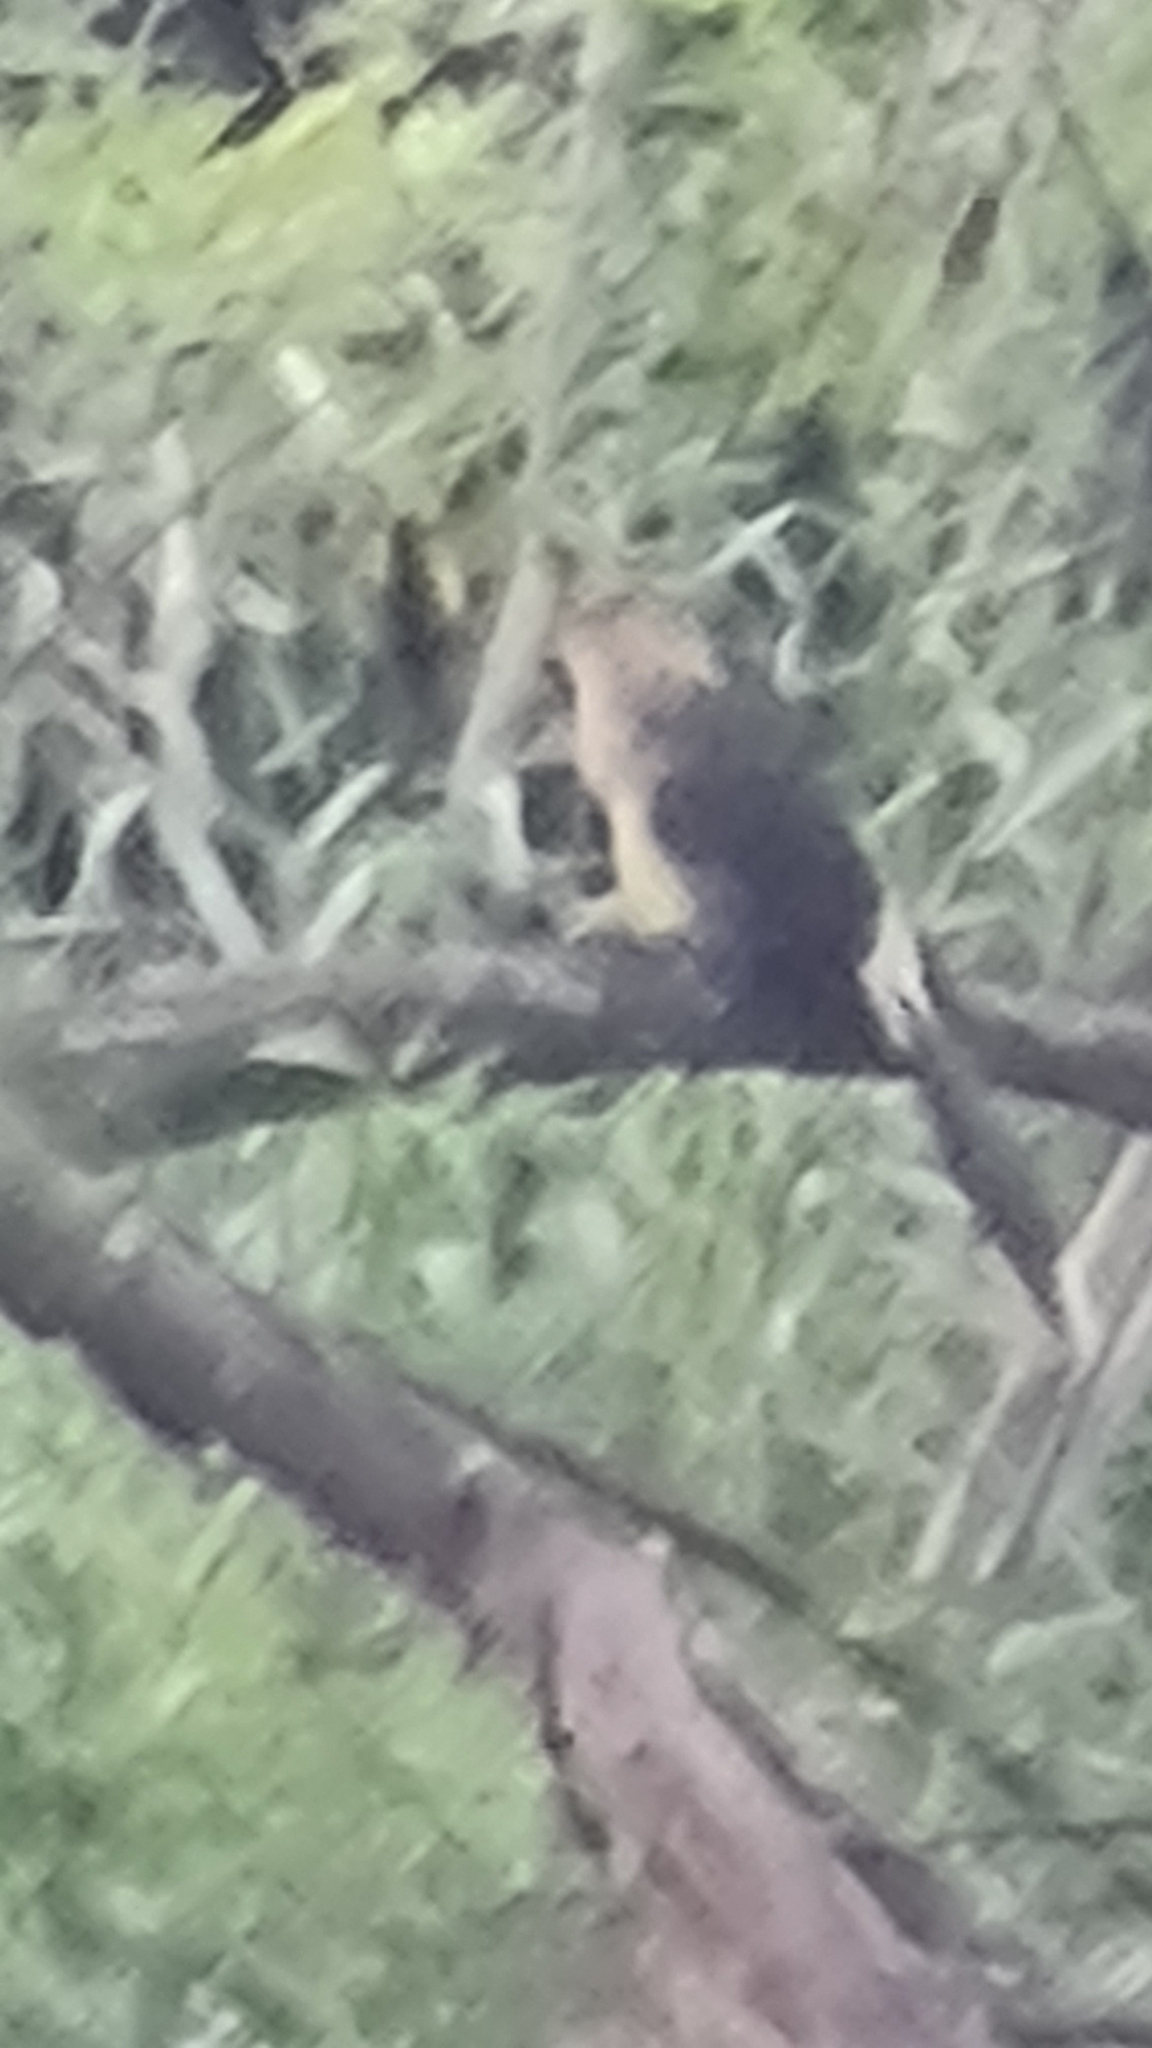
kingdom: Animalia
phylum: Chordata
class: Aves
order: Cuculiformes
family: Cuculidae
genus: Guira
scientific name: Guira guira
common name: Guira cuckoo
